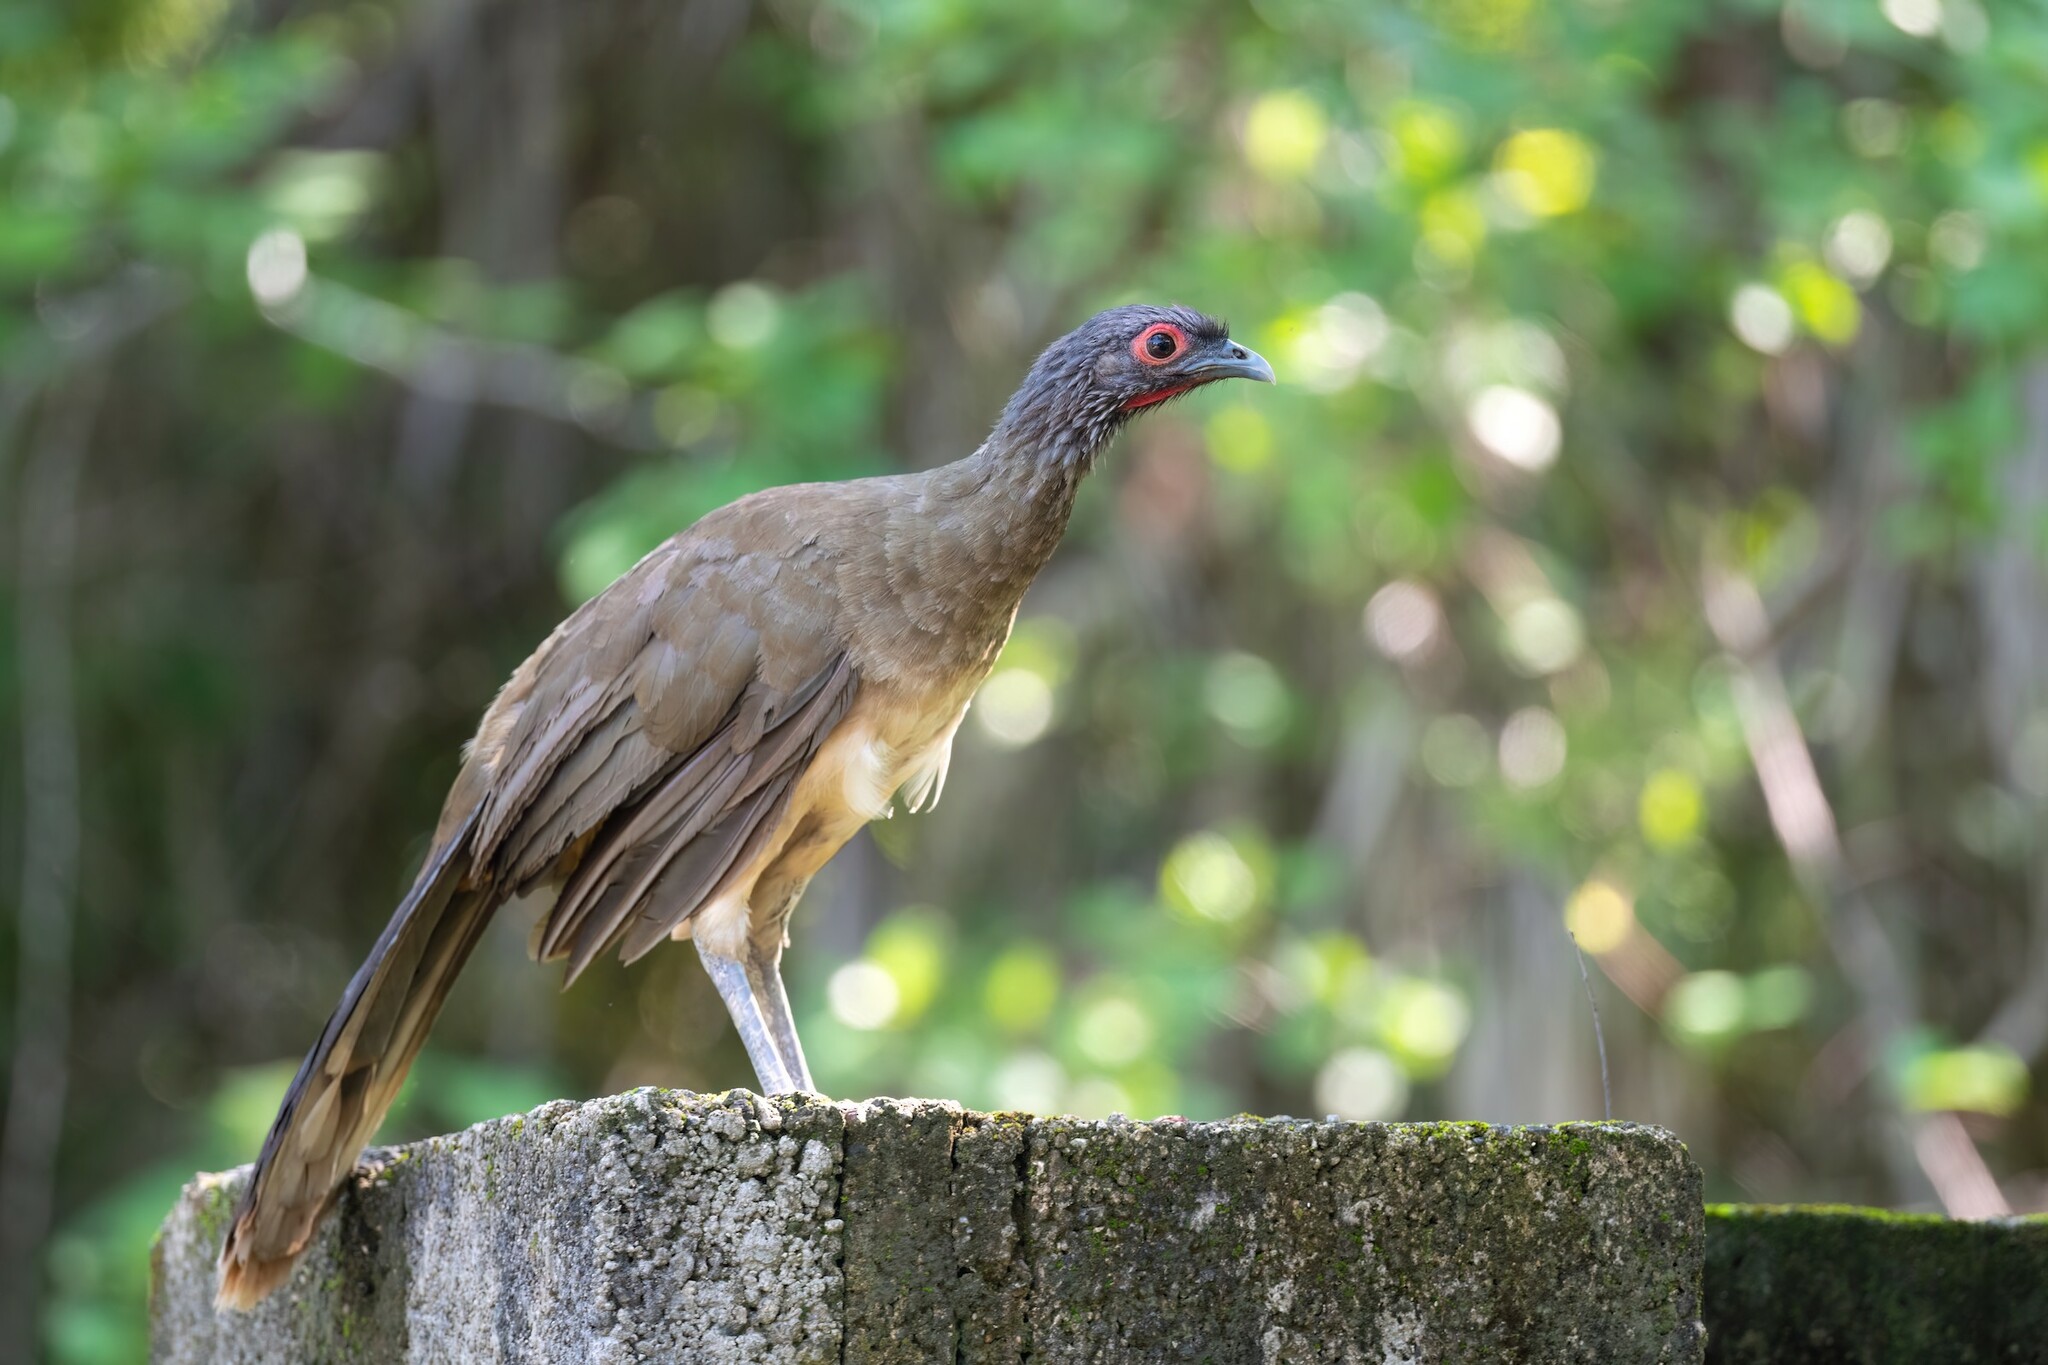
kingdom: Animalia
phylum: Chordata
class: Aves
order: Galliformes
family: Cracidae
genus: Ortalis
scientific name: Ortalis poliocephala
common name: West mexican chachalaca
